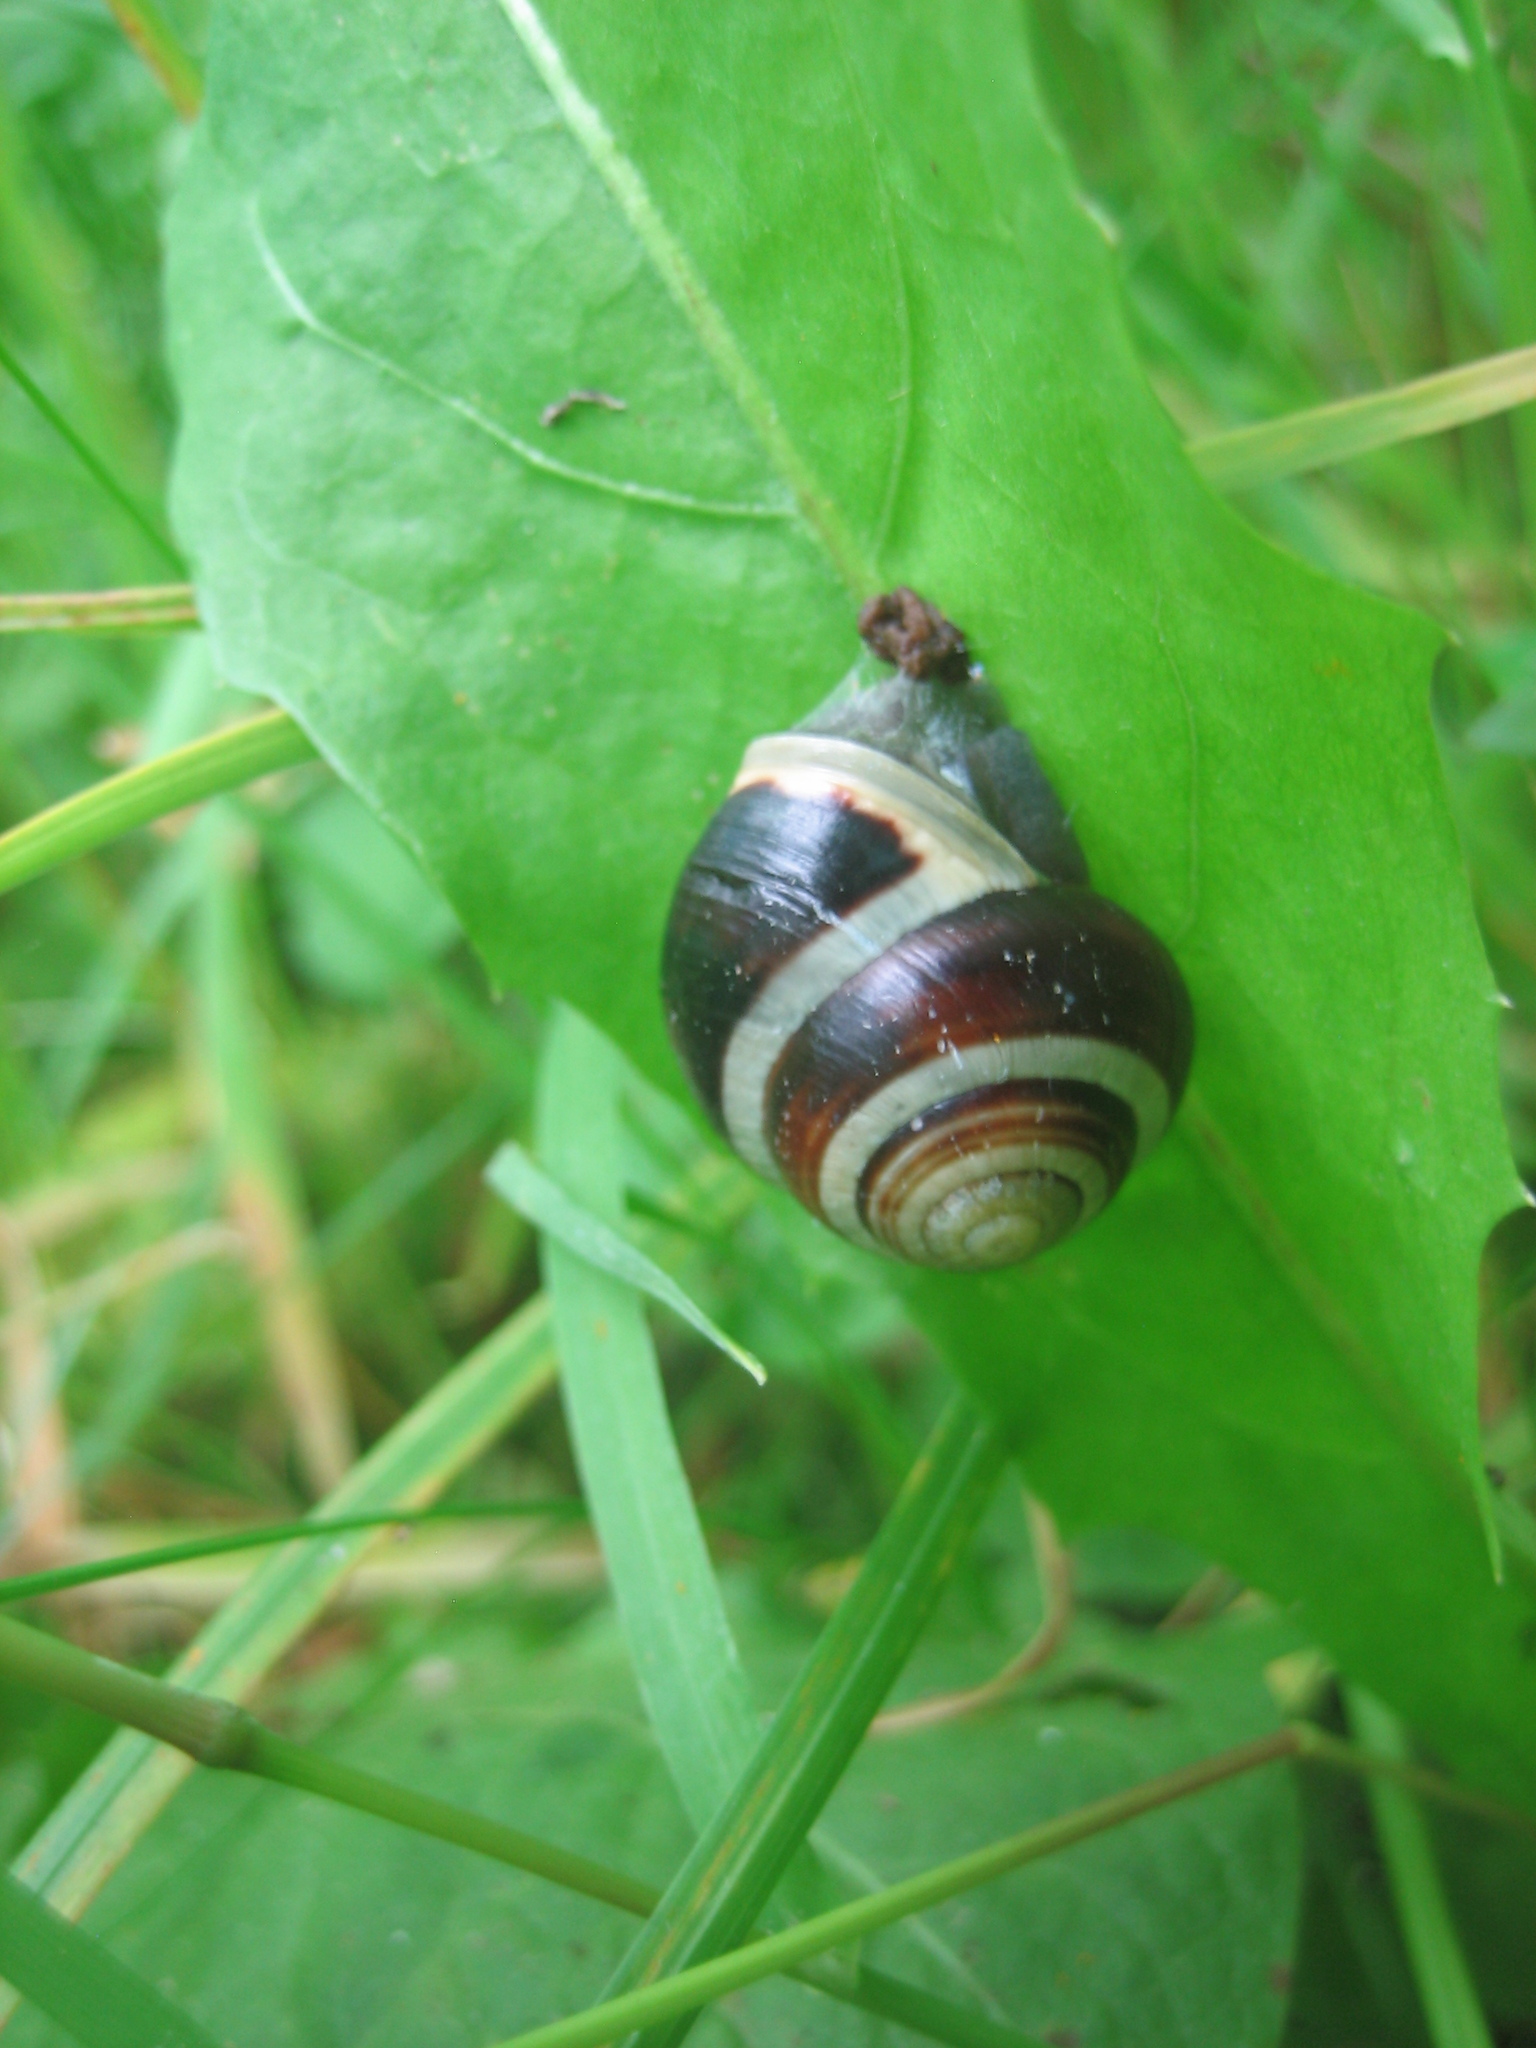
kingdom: Animalia
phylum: Mollusca
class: Gastropoda
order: Stylommatophora
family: Helicidae
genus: Cepaea
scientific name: Cepaea hortensis
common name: White-lip gardensnail
